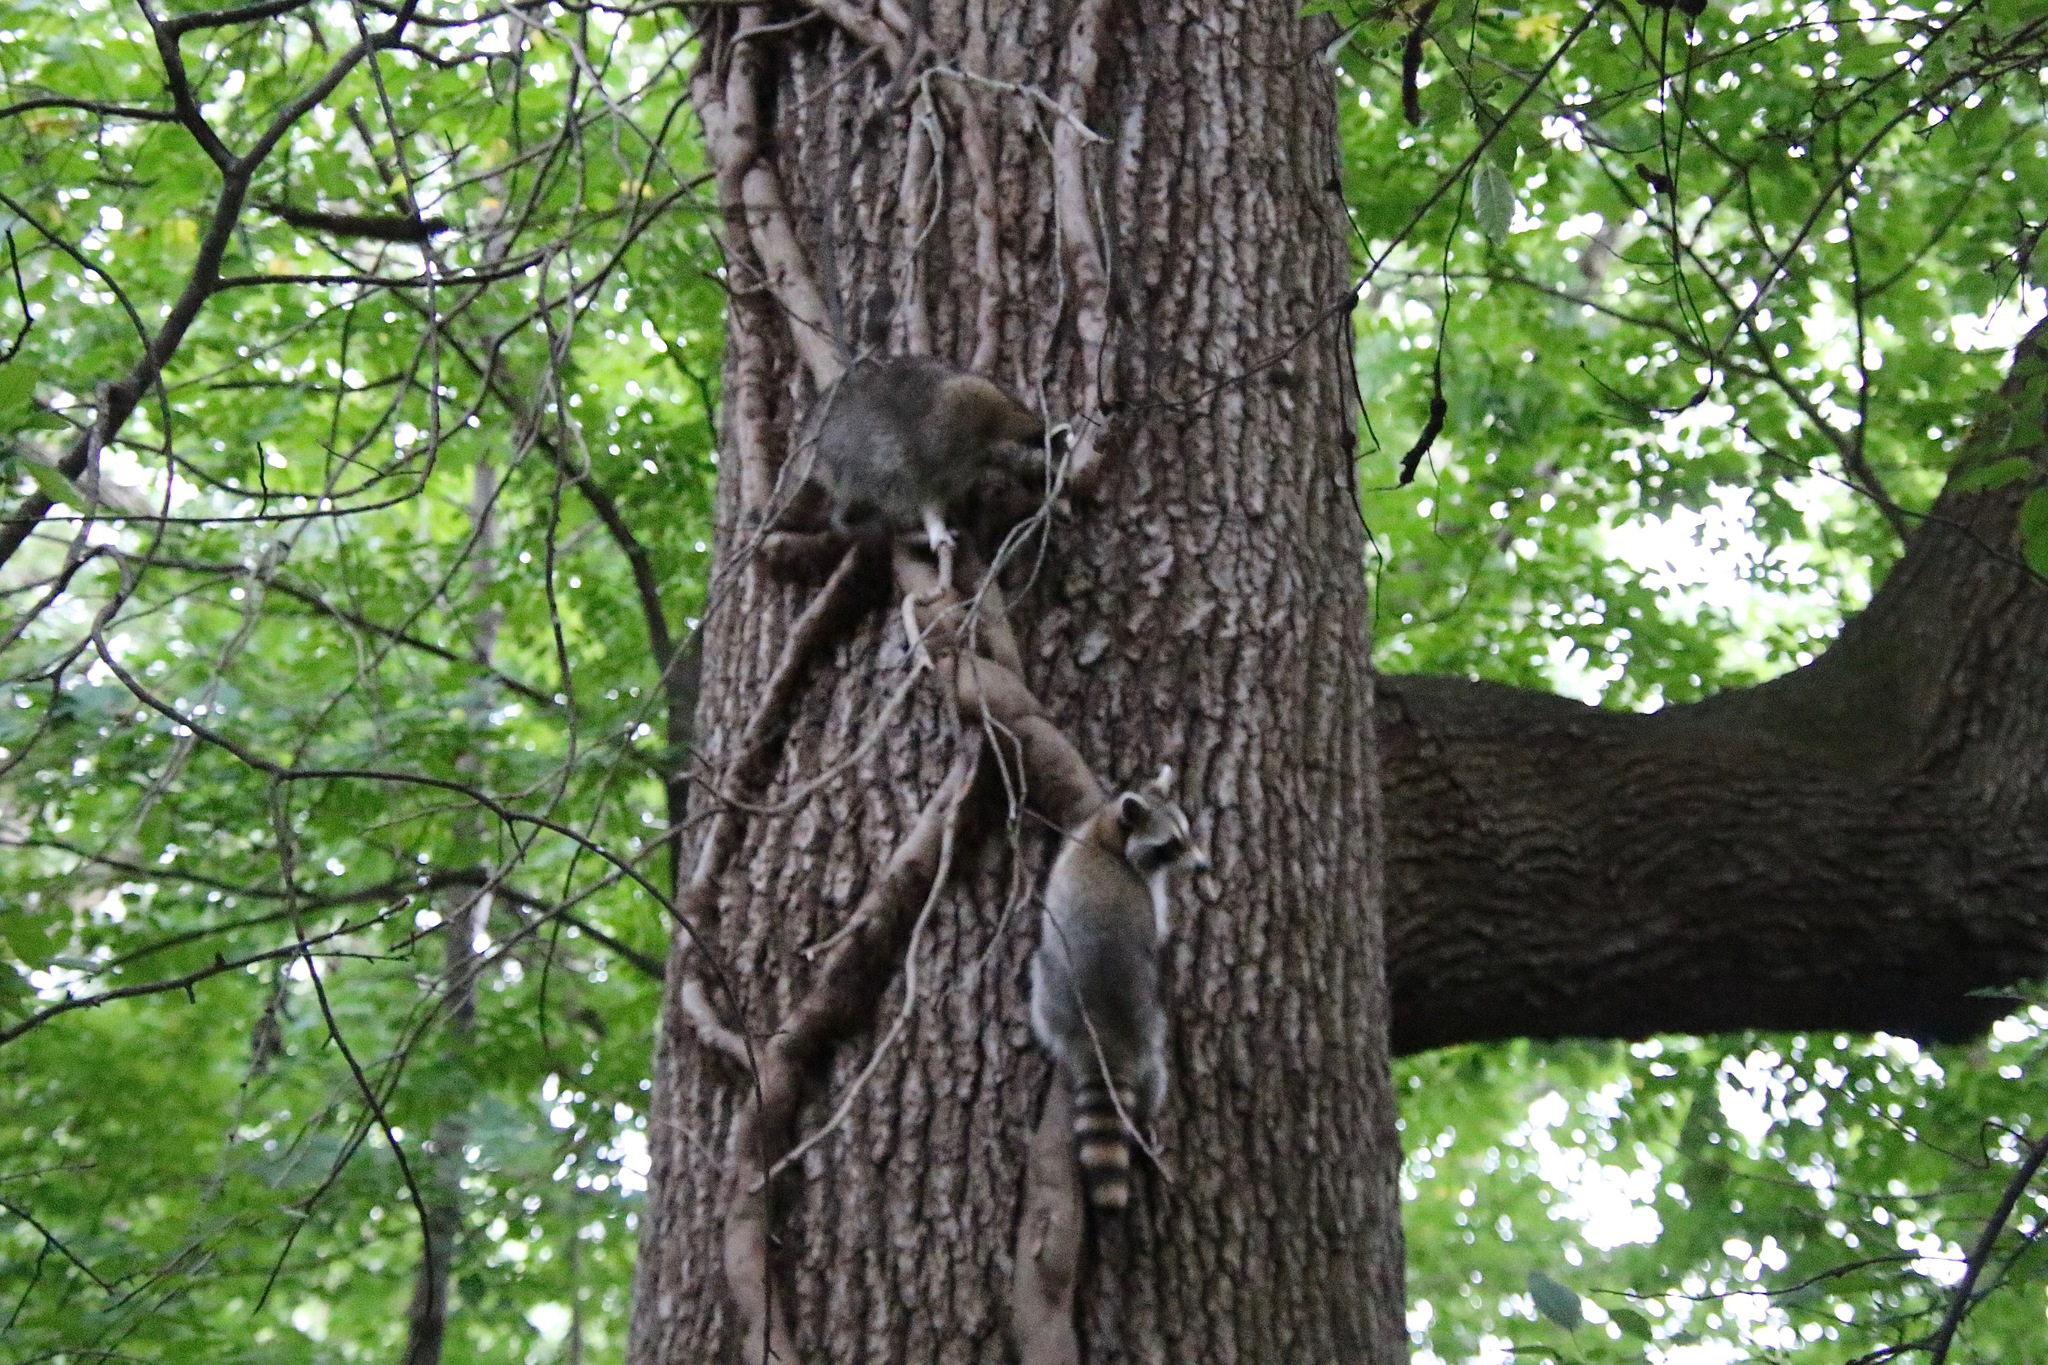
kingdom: Animalia
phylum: Chordata
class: Mammalia
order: Carnivora
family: Procyonidae
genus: Procyon
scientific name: Procyon lotor
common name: Raccoon
